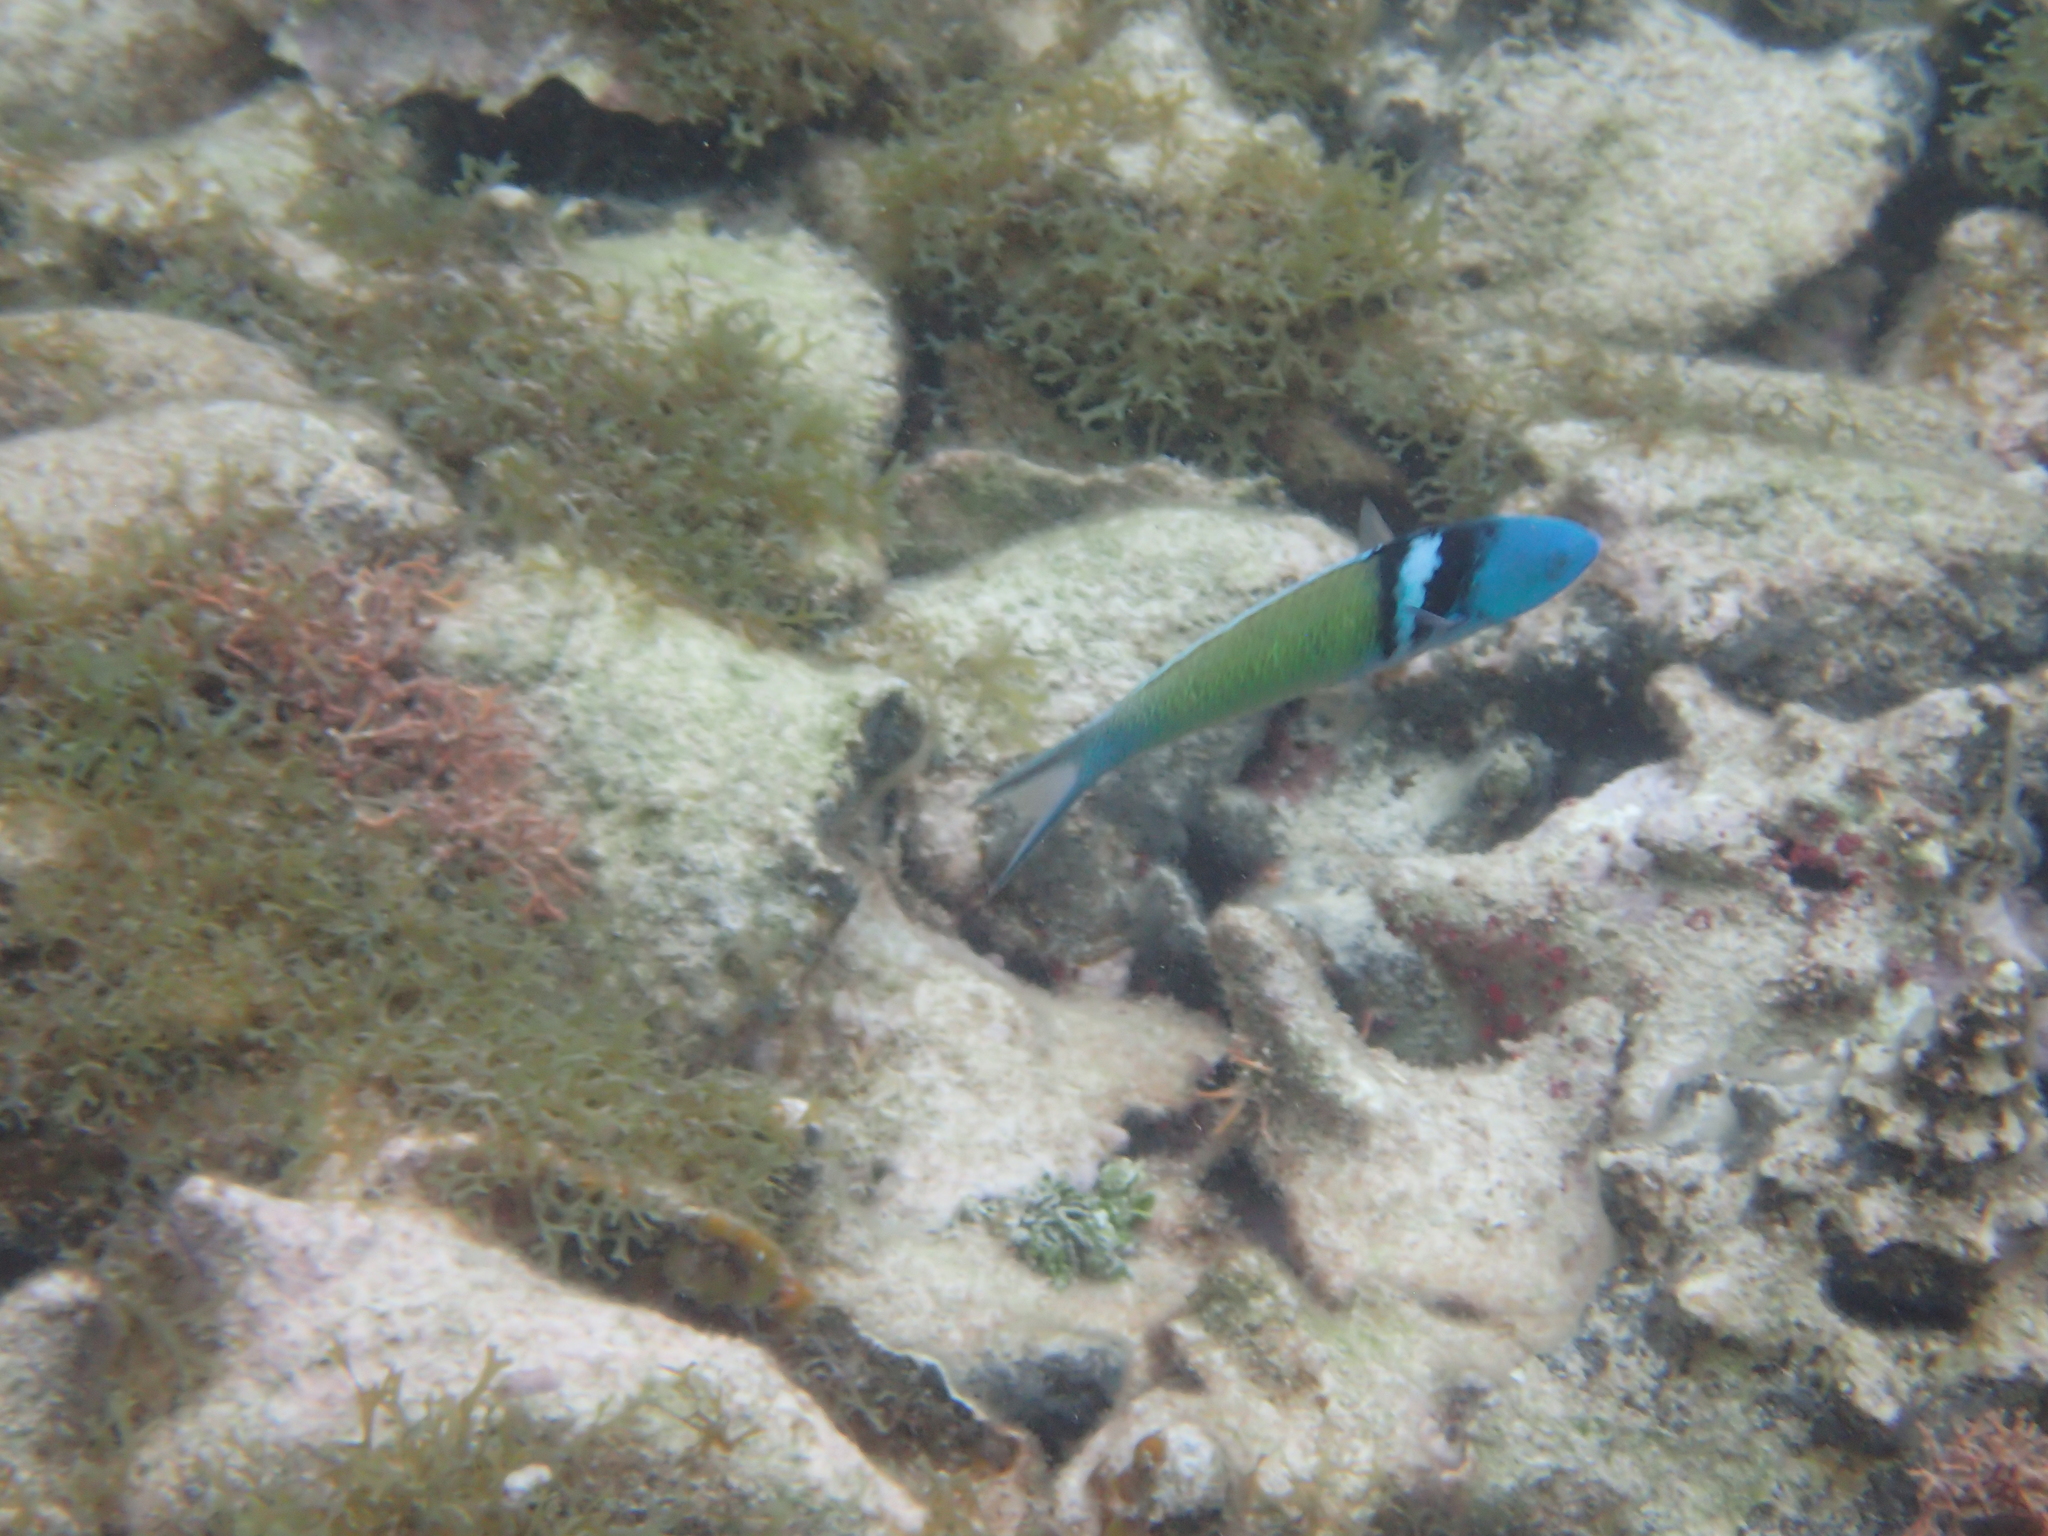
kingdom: Animalia
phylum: Chordata
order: Perciformes
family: Labridae
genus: Thalassoma
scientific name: Thalassoma bifasciatum
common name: Bluehead wrasse
